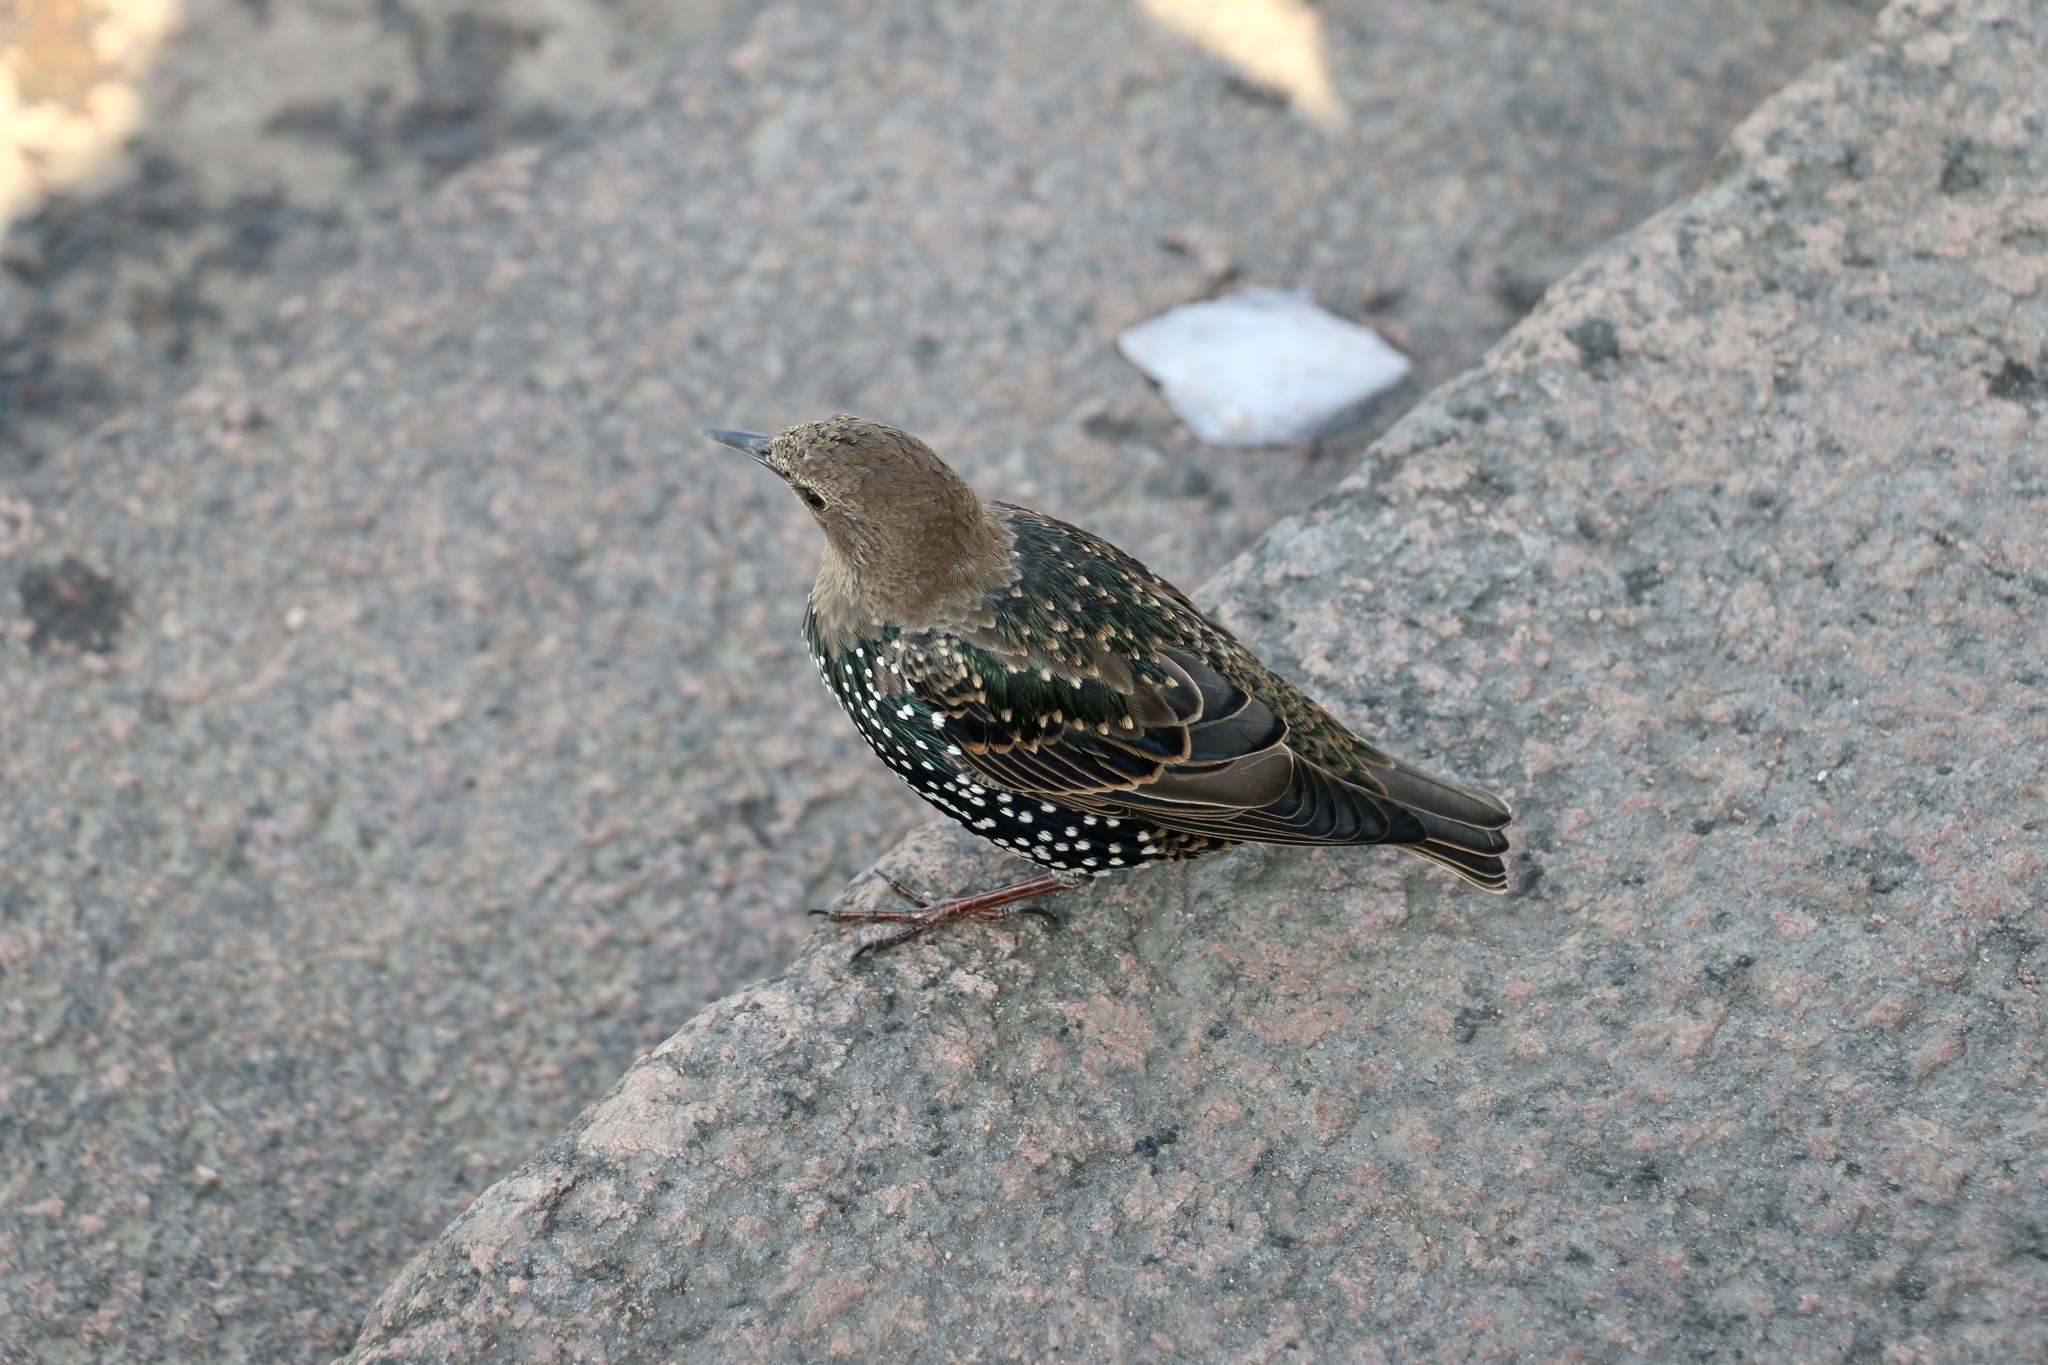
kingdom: Animalia
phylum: Chordata
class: Aves
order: Passeriformes
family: Sturnidae
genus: Sturnus
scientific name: Sturnus vulgaris
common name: Common starling
